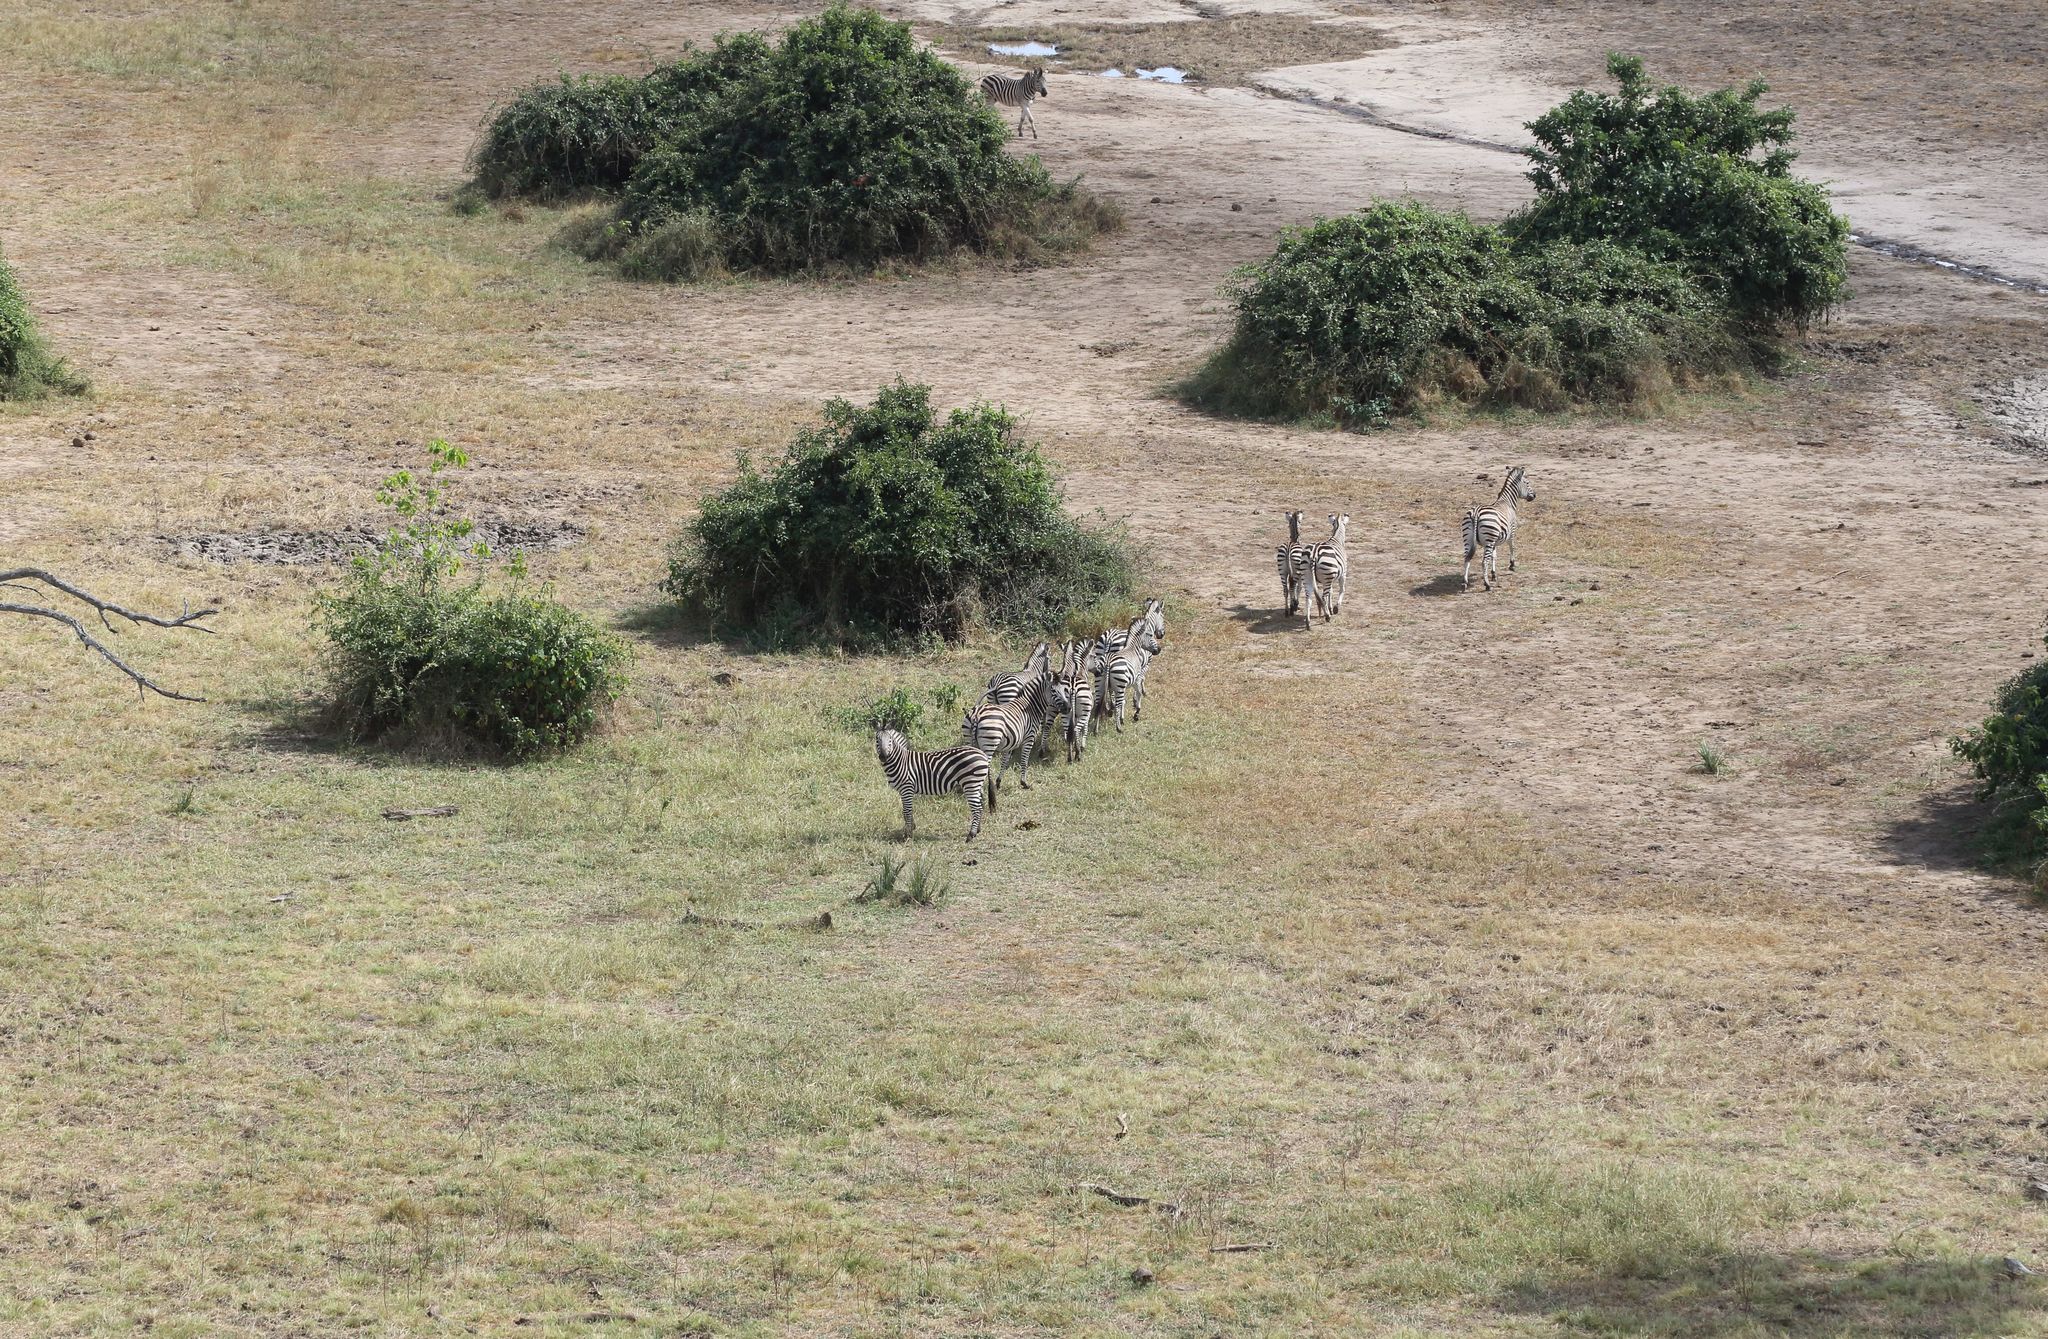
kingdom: Animalia
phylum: Chordata
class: Mammalia
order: Perissodactyla
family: Equidae
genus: Equus
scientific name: Equus quagga
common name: Plains zebra
